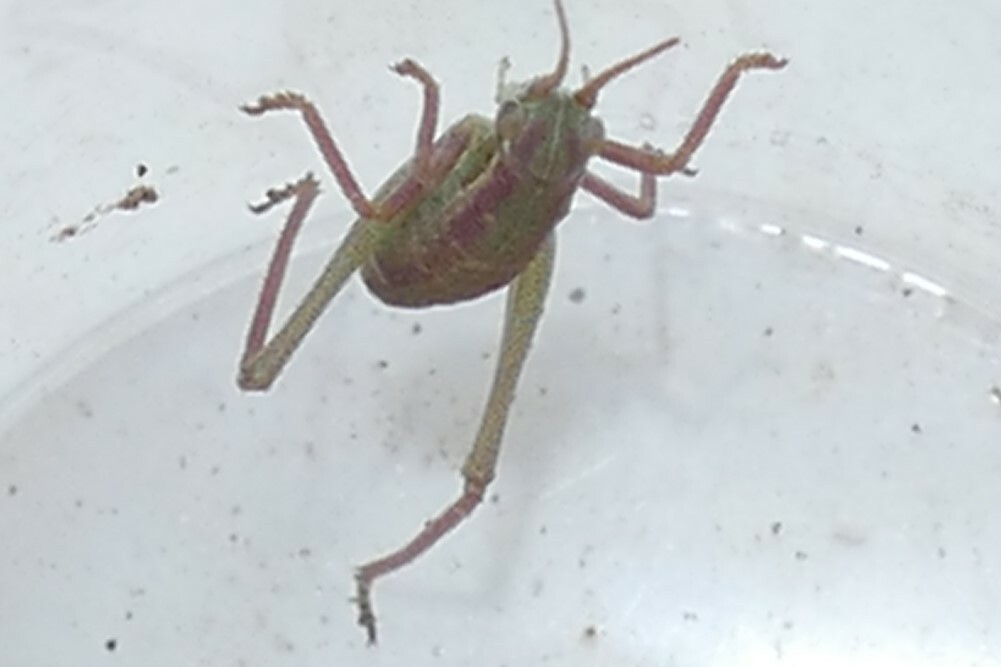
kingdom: Animalia
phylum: Arthropoda
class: Insecta
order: Orthoptera
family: Tettigoniidae
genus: Isophya
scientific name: Isophya pyrenaea
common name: Pyrenean plump bush-cricket
